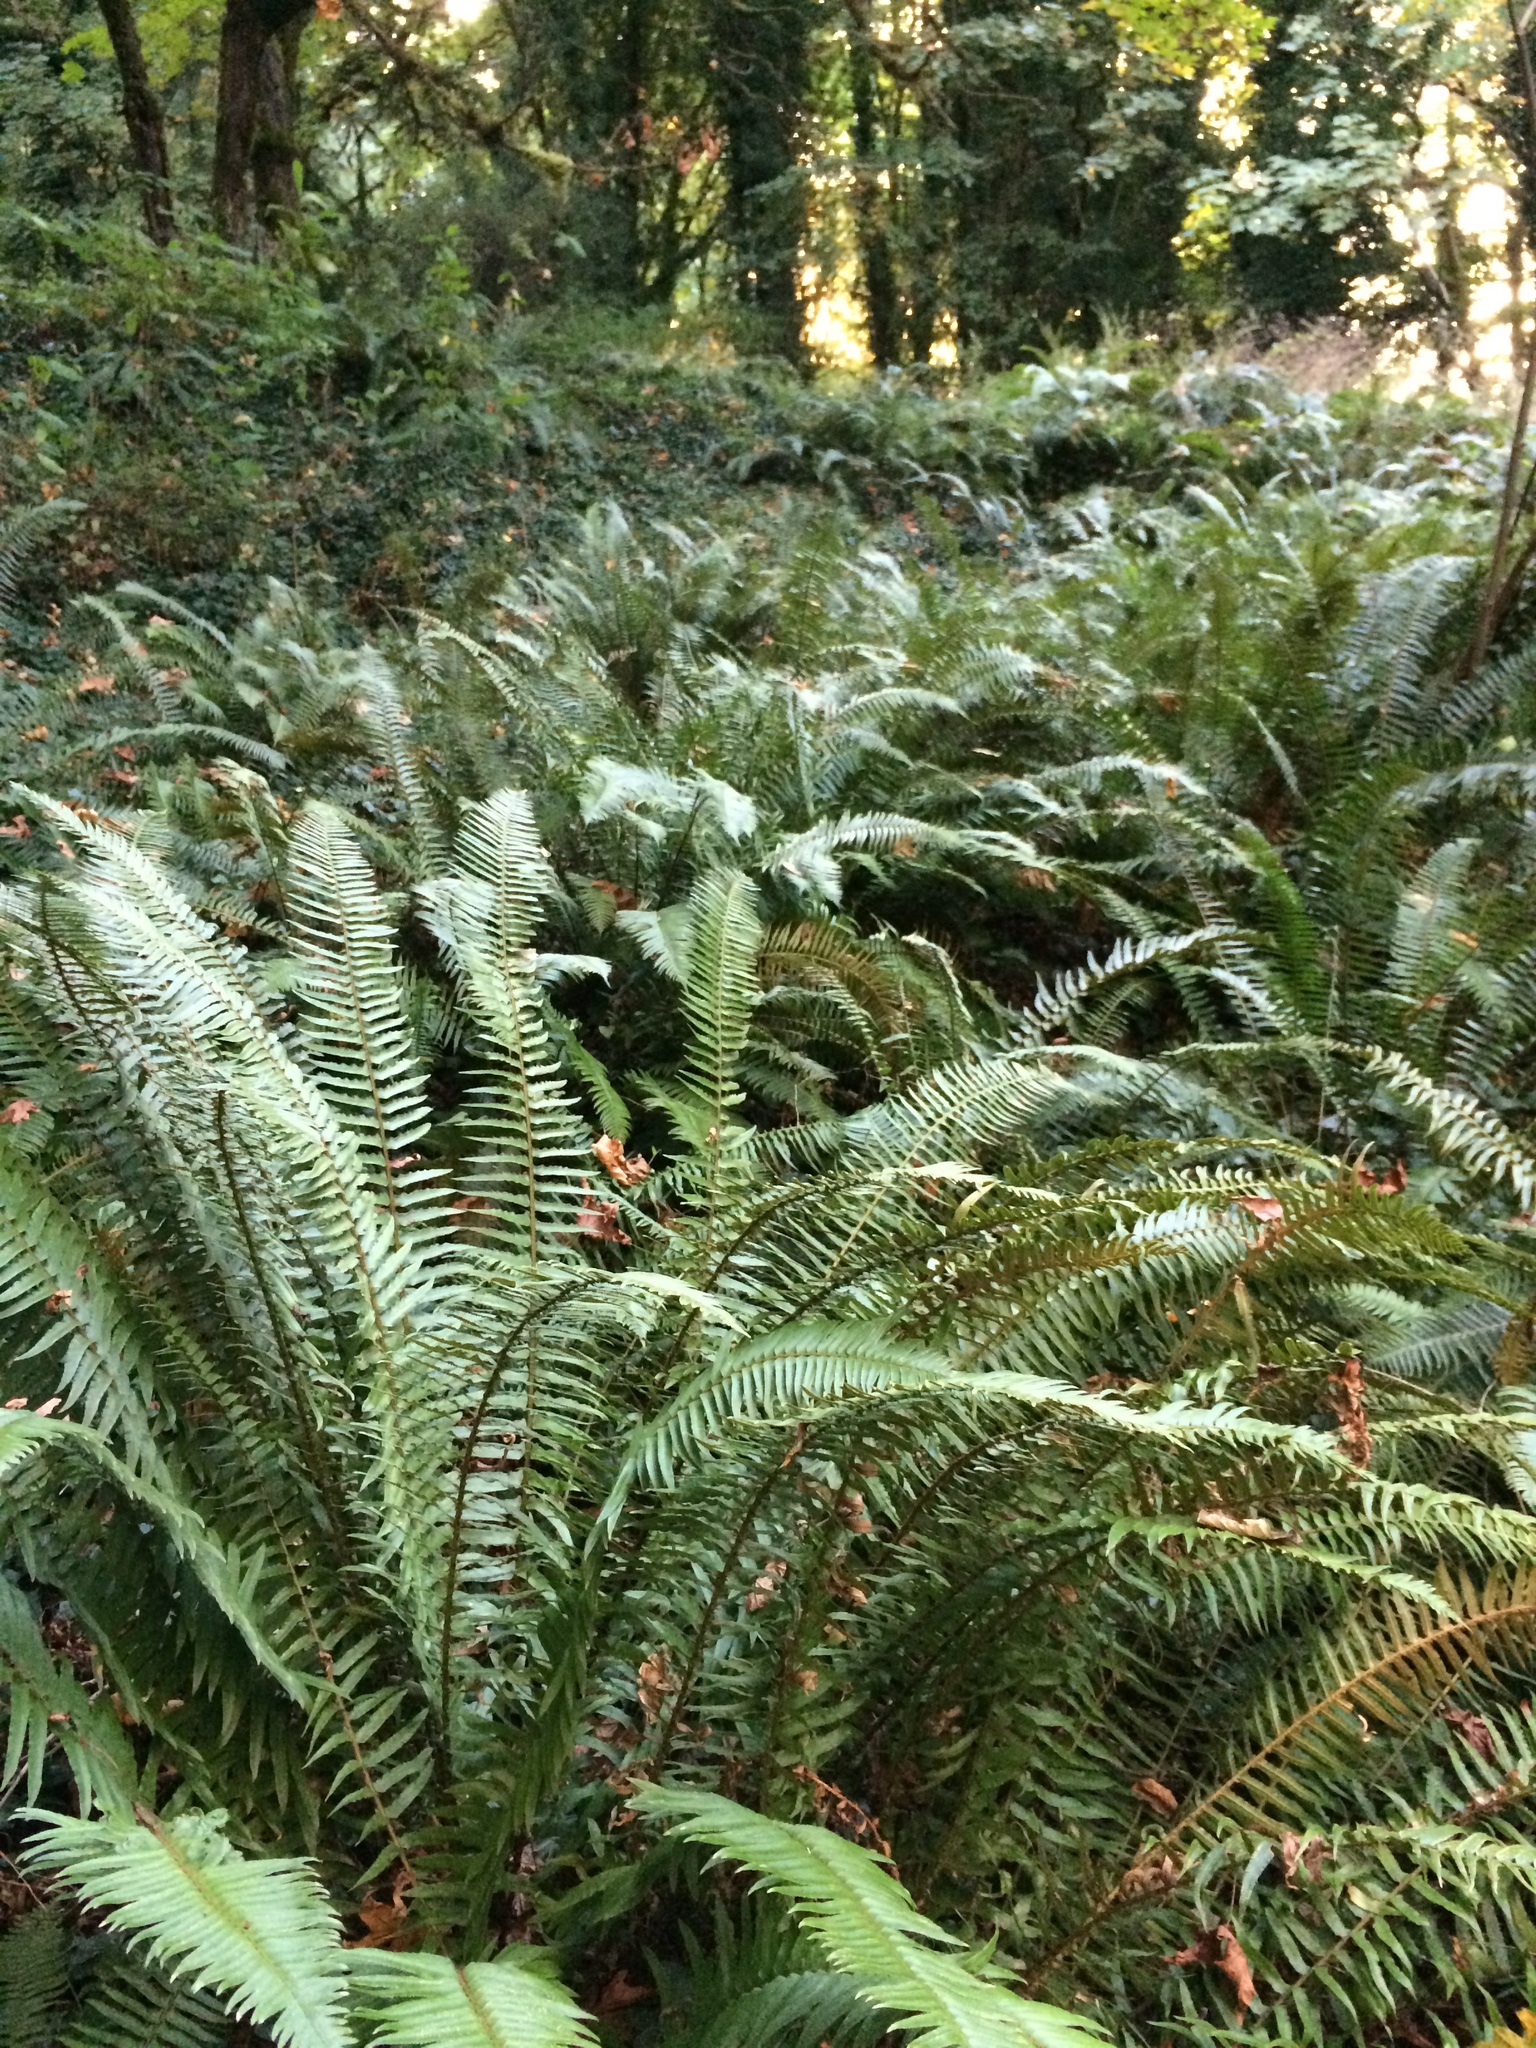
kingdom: Plantae
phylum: Tracheophyta
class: Polypodiopsida
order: Polypodiales
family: Dryopteridaceae
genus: Polystichum
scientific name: Polystichum munitum
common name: Western sword-fern
